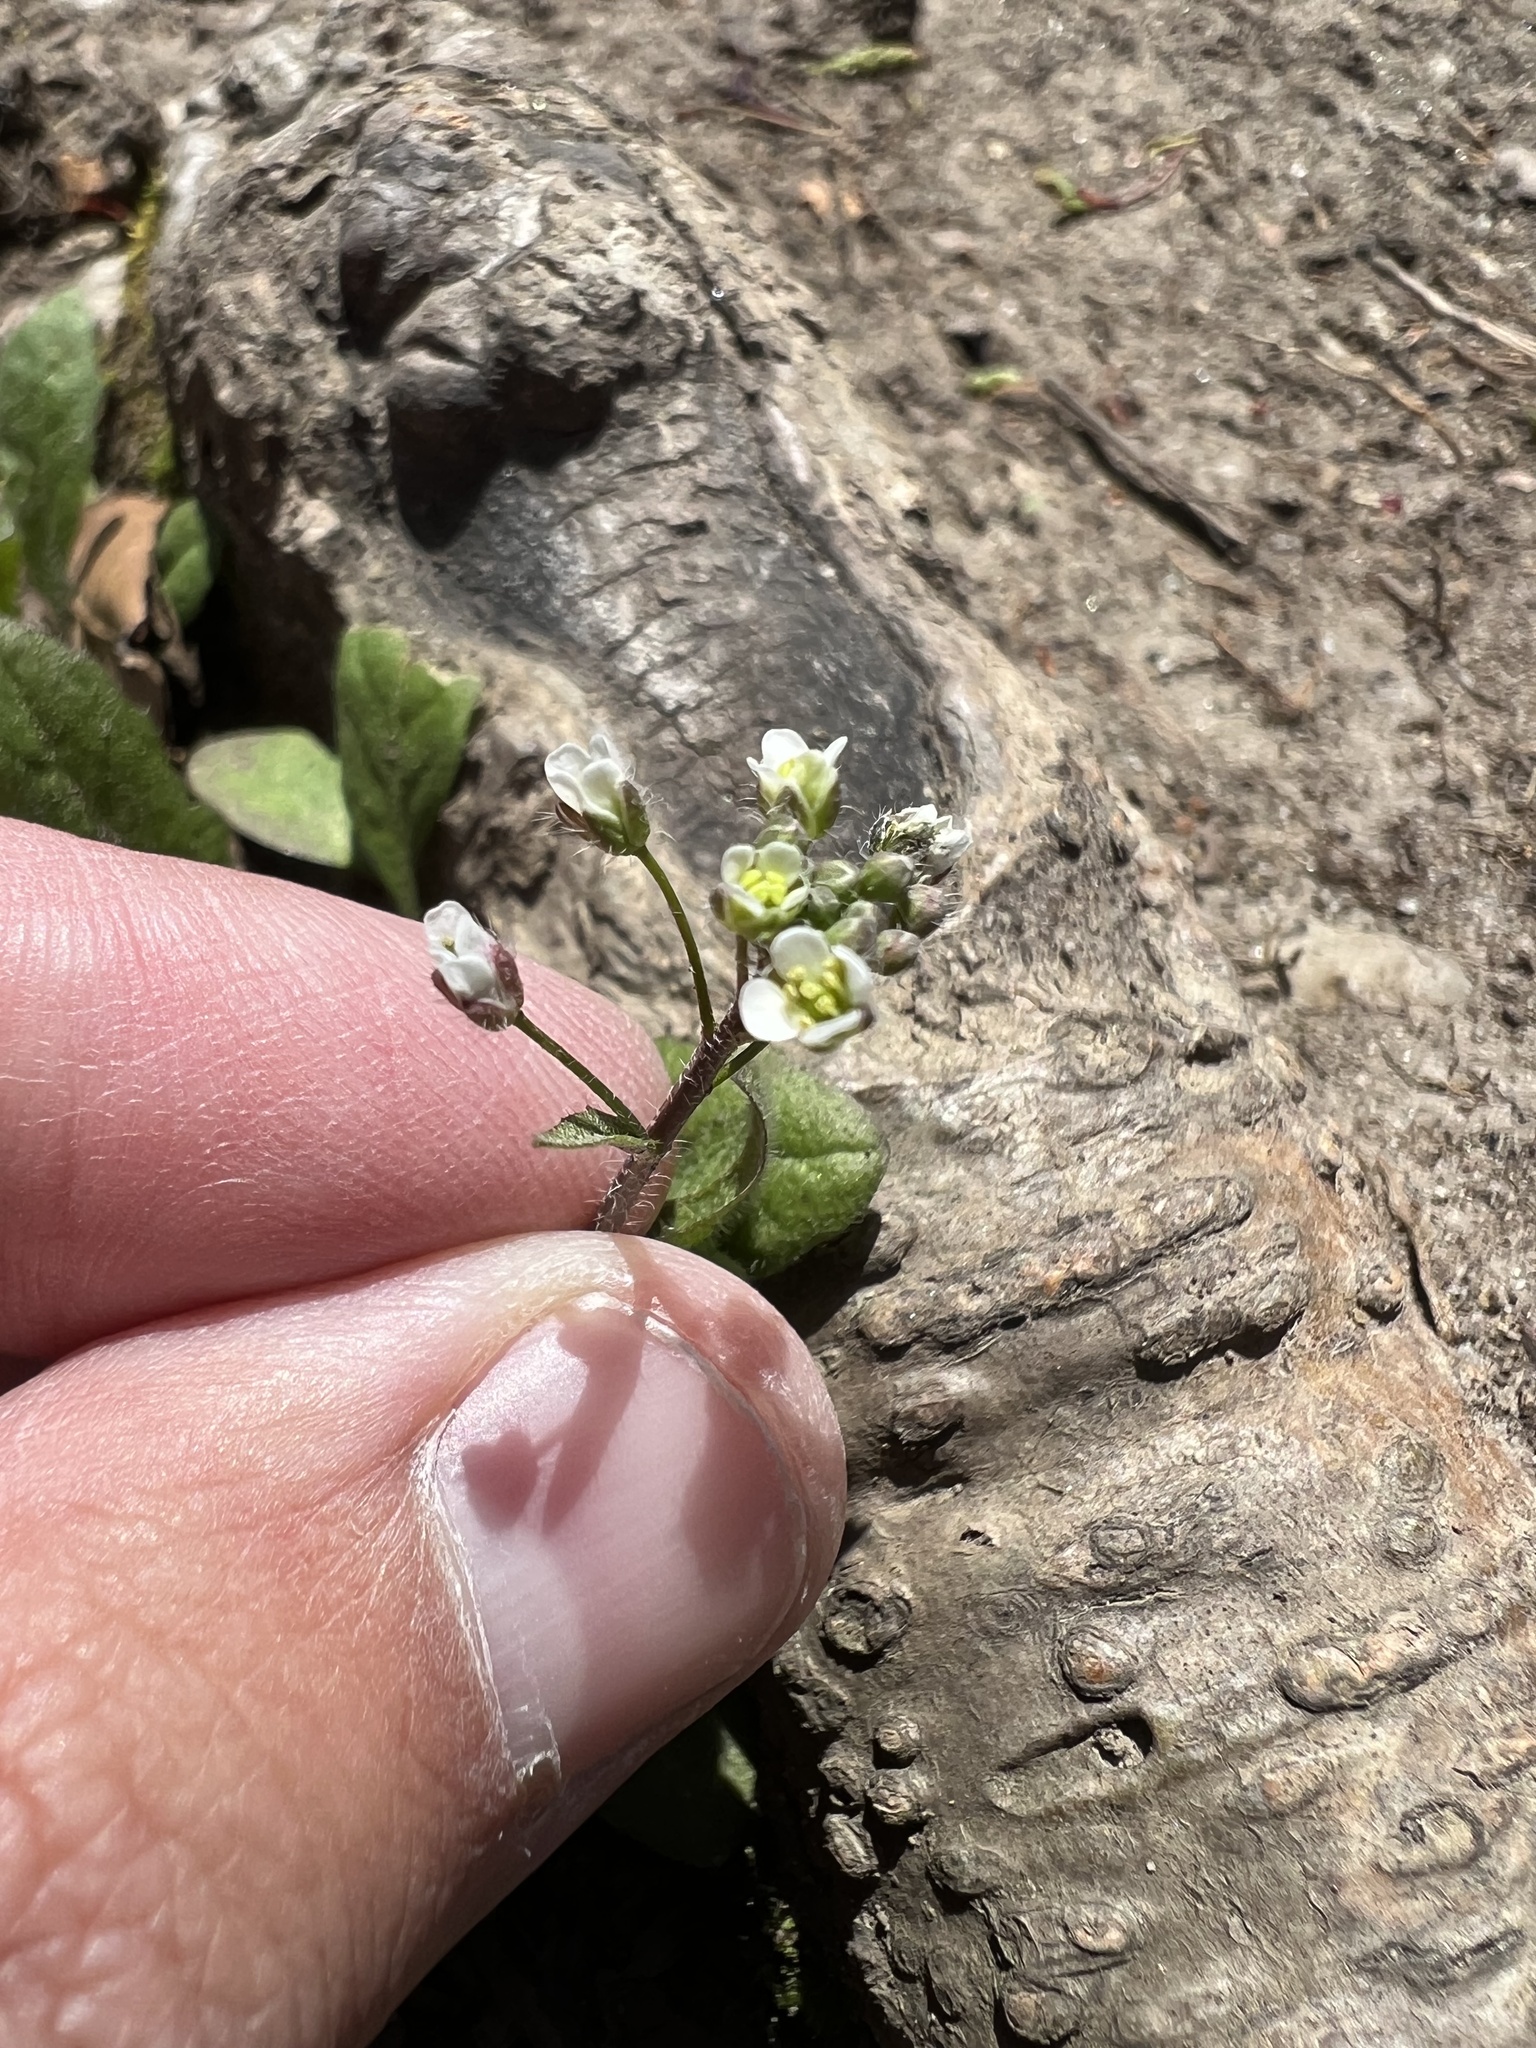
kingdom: Plantae
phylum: Tracheophyta
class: Magnoliopsida
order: Brassicales
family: Brassicaceae
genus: Capsella
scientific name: Capsella bursa-pastoris
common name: Shepherd's purse
